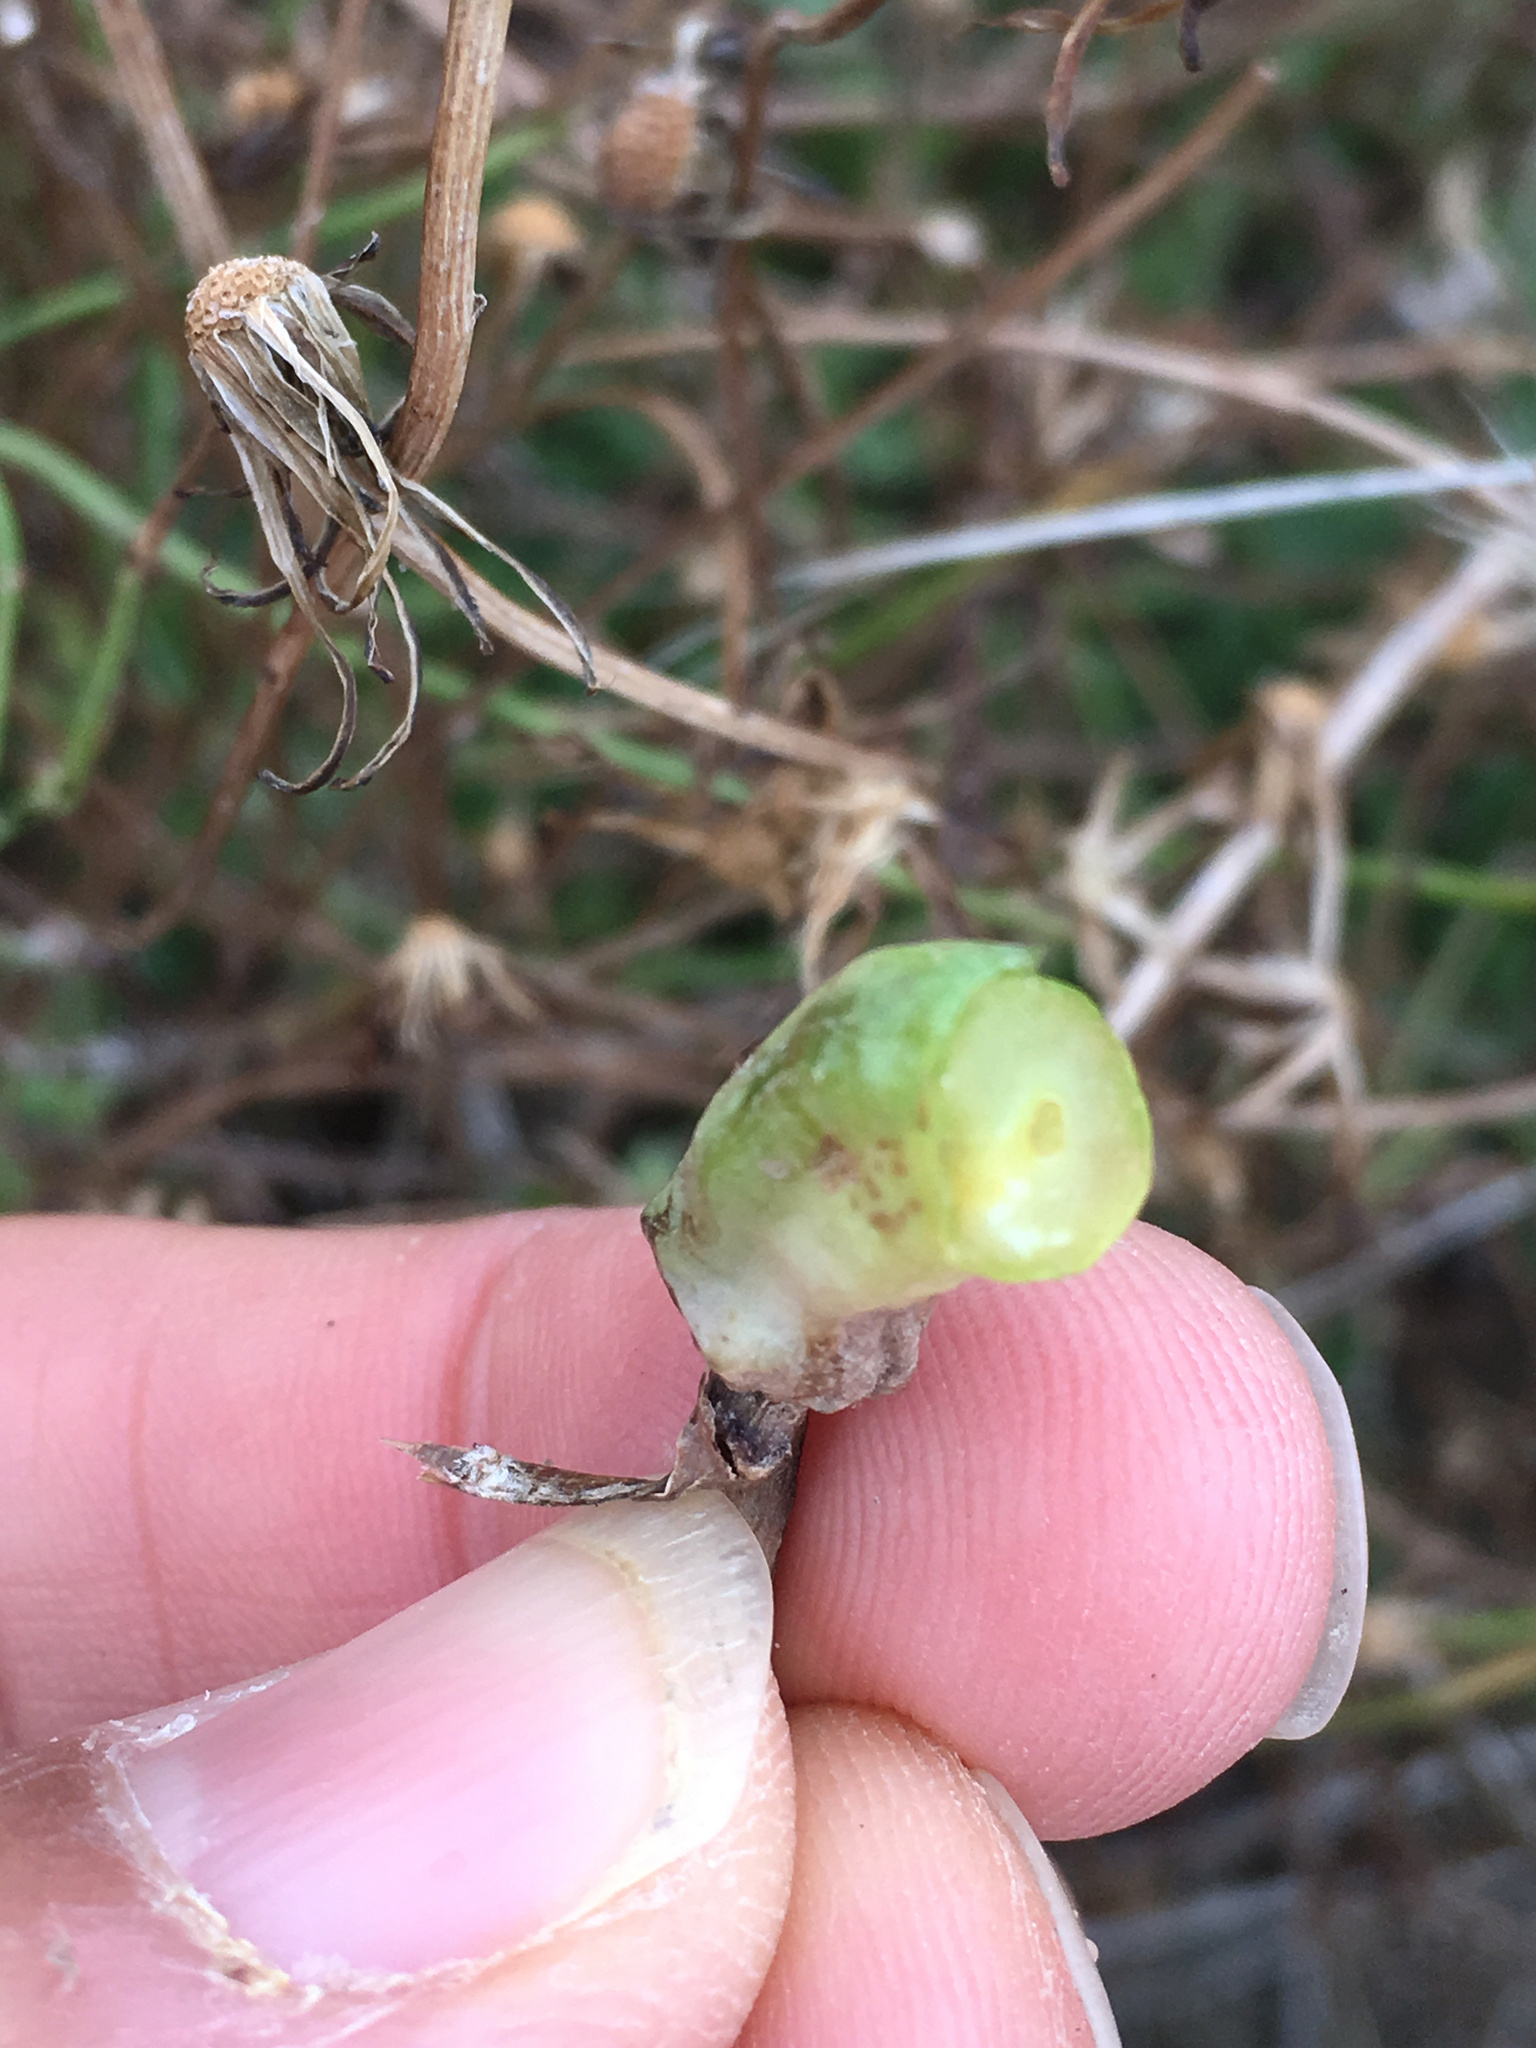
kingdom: Animalia
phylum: Arthropoda
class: Insecta
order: Hymenoptera
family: Cynipidae
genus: Phanacis
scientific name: Phanacis hypochoeridis
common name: Gall wasp
